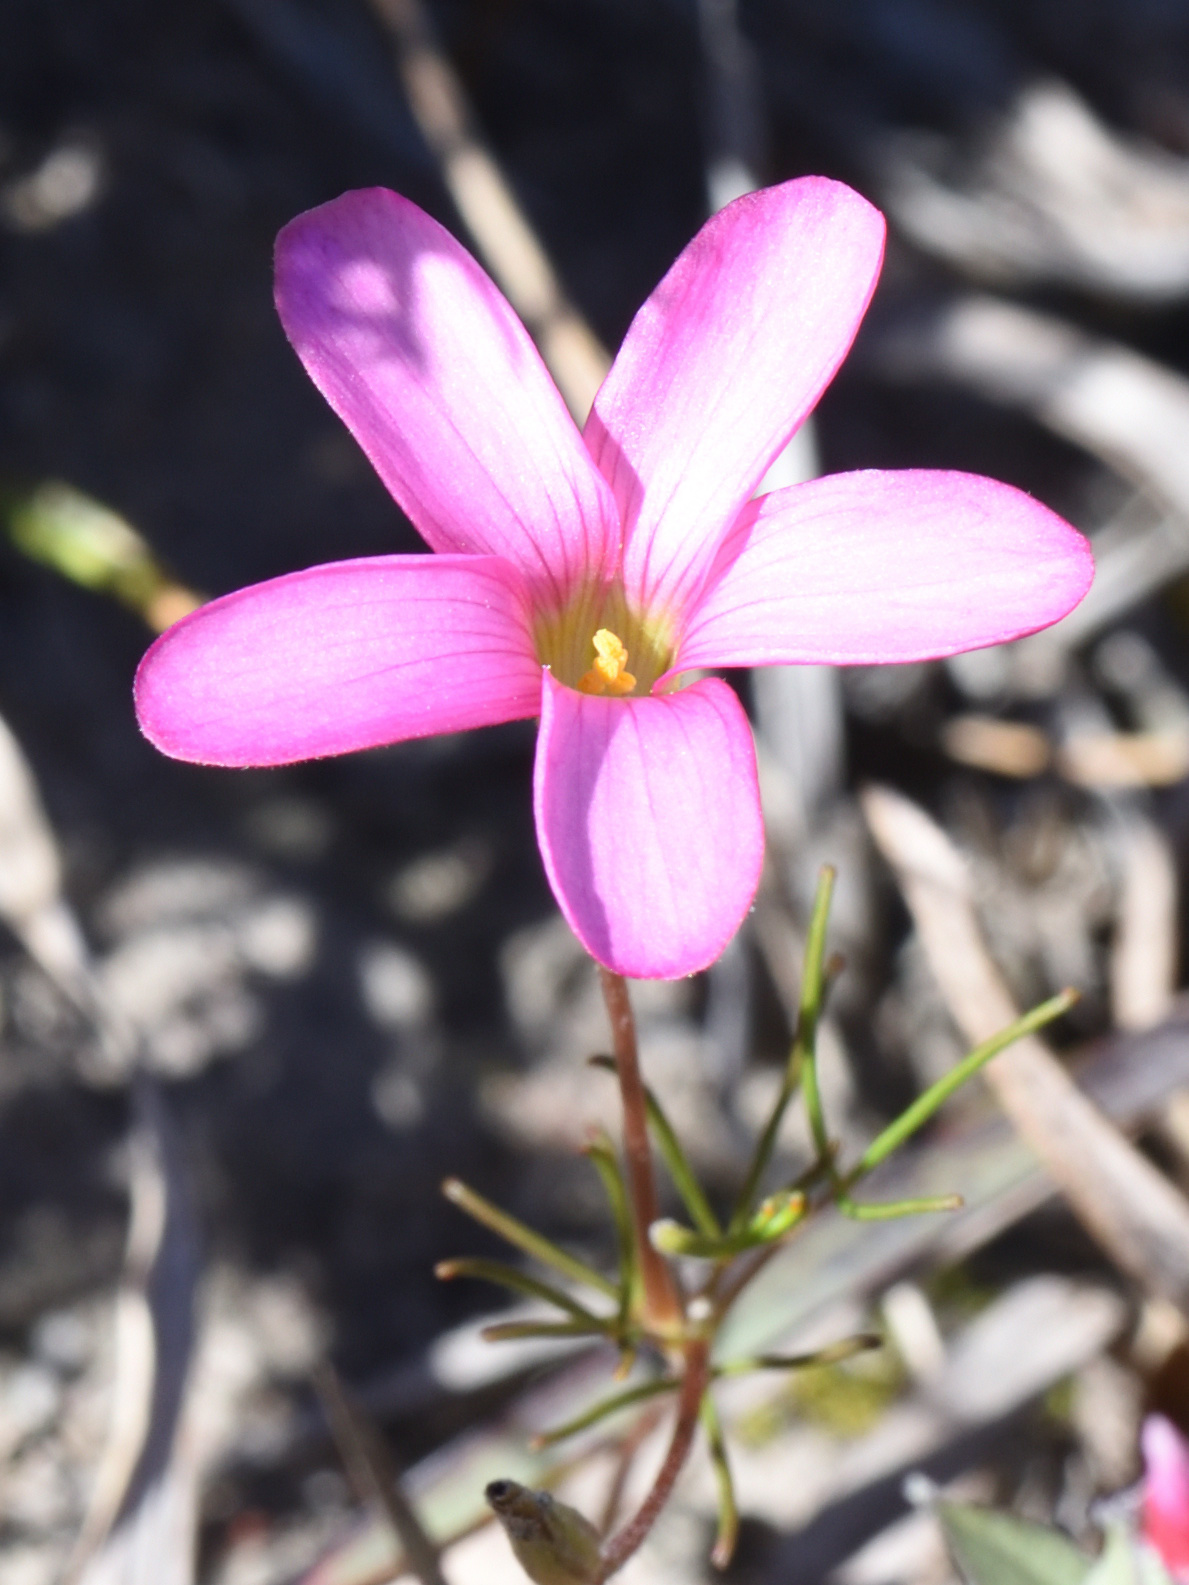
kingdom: Plantae
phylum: Tracheophyta
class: Magnoliopsida
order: Oxalidales
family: Oxalidaceae
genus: Oxalis
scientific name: Oxalis polyphylla
